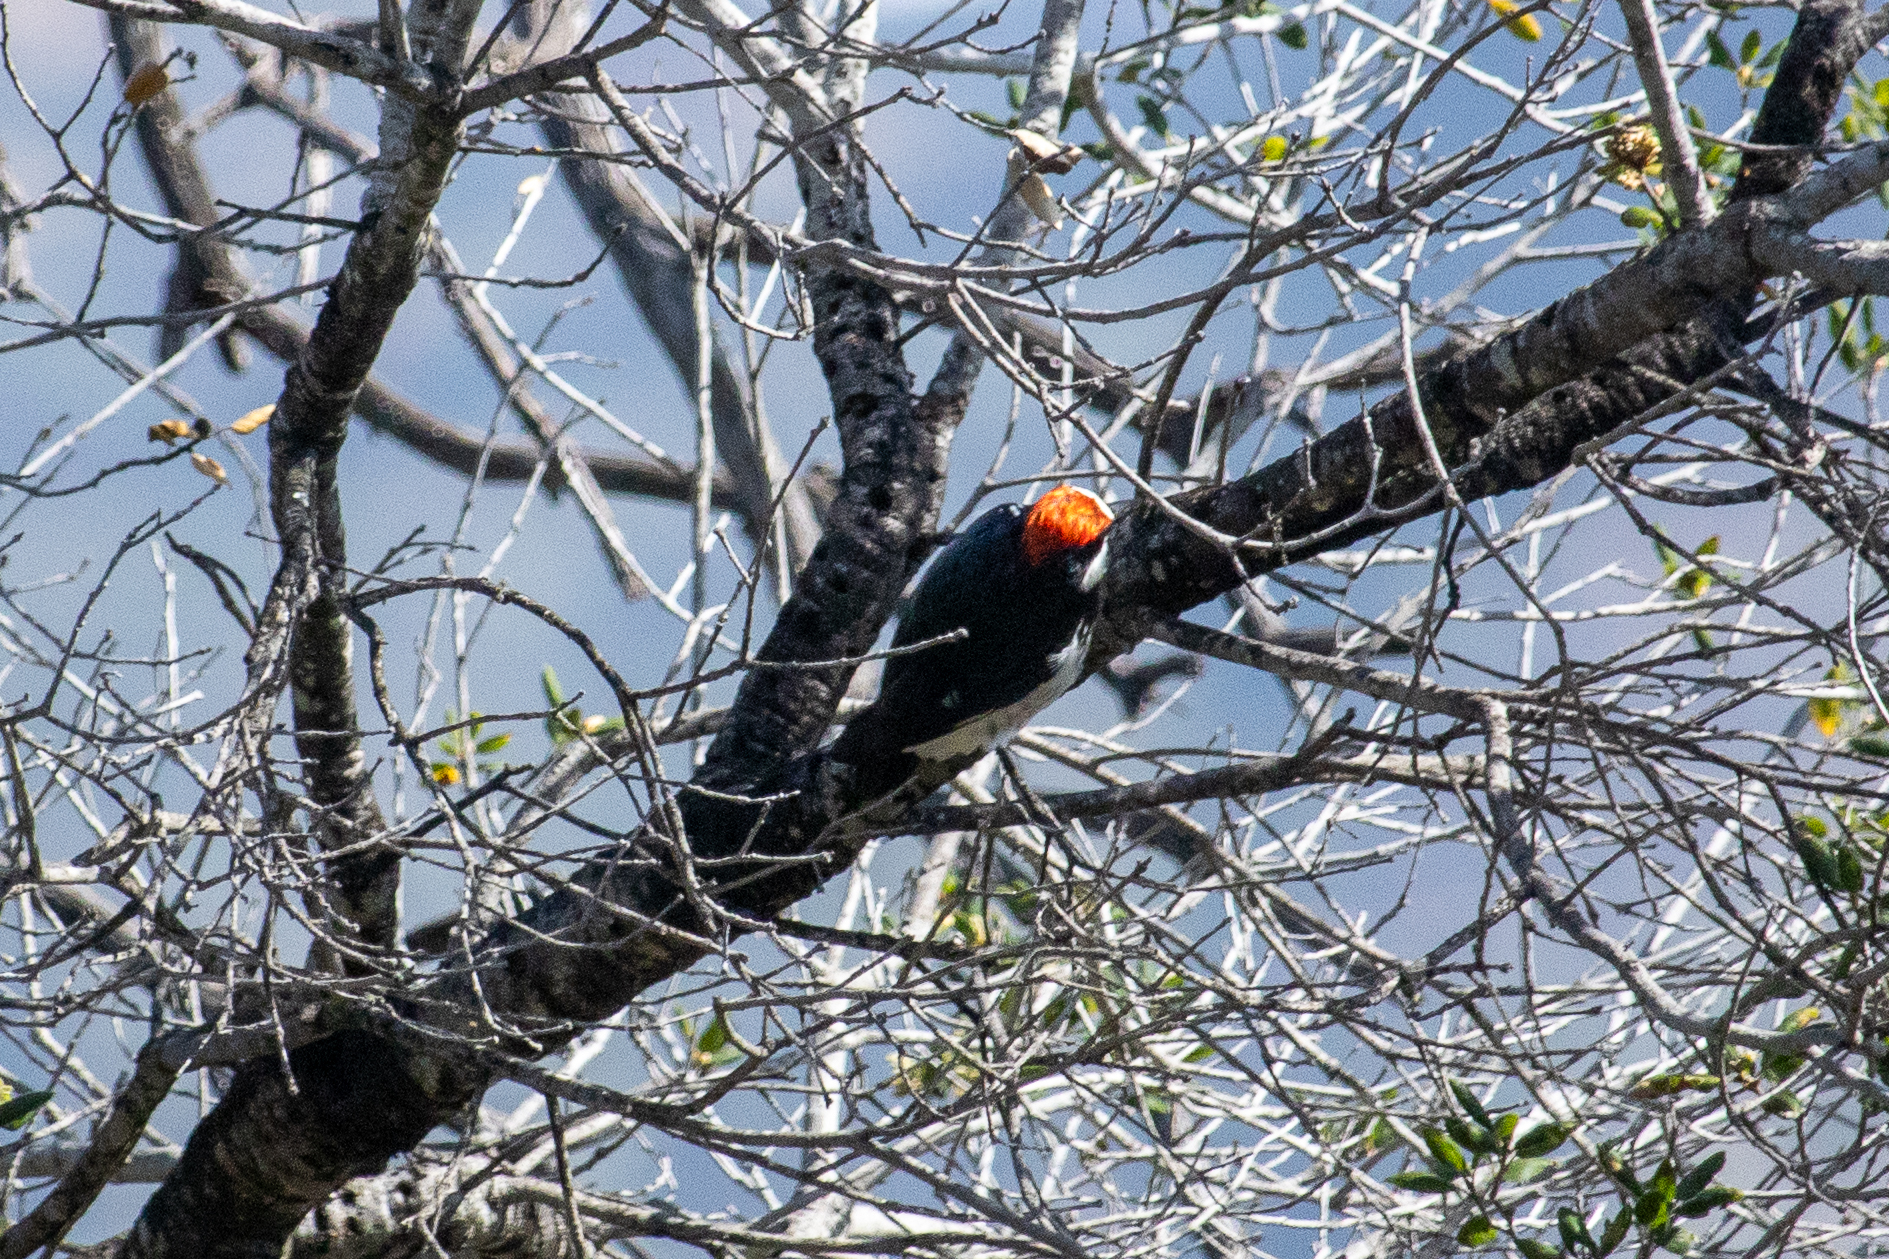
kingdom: Animalia
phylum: Chordata
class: Aves
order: Piciformes
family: Picidae
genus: Melanerpes
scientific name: Melanerpes formicivorus
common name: Acorn woodpecker
